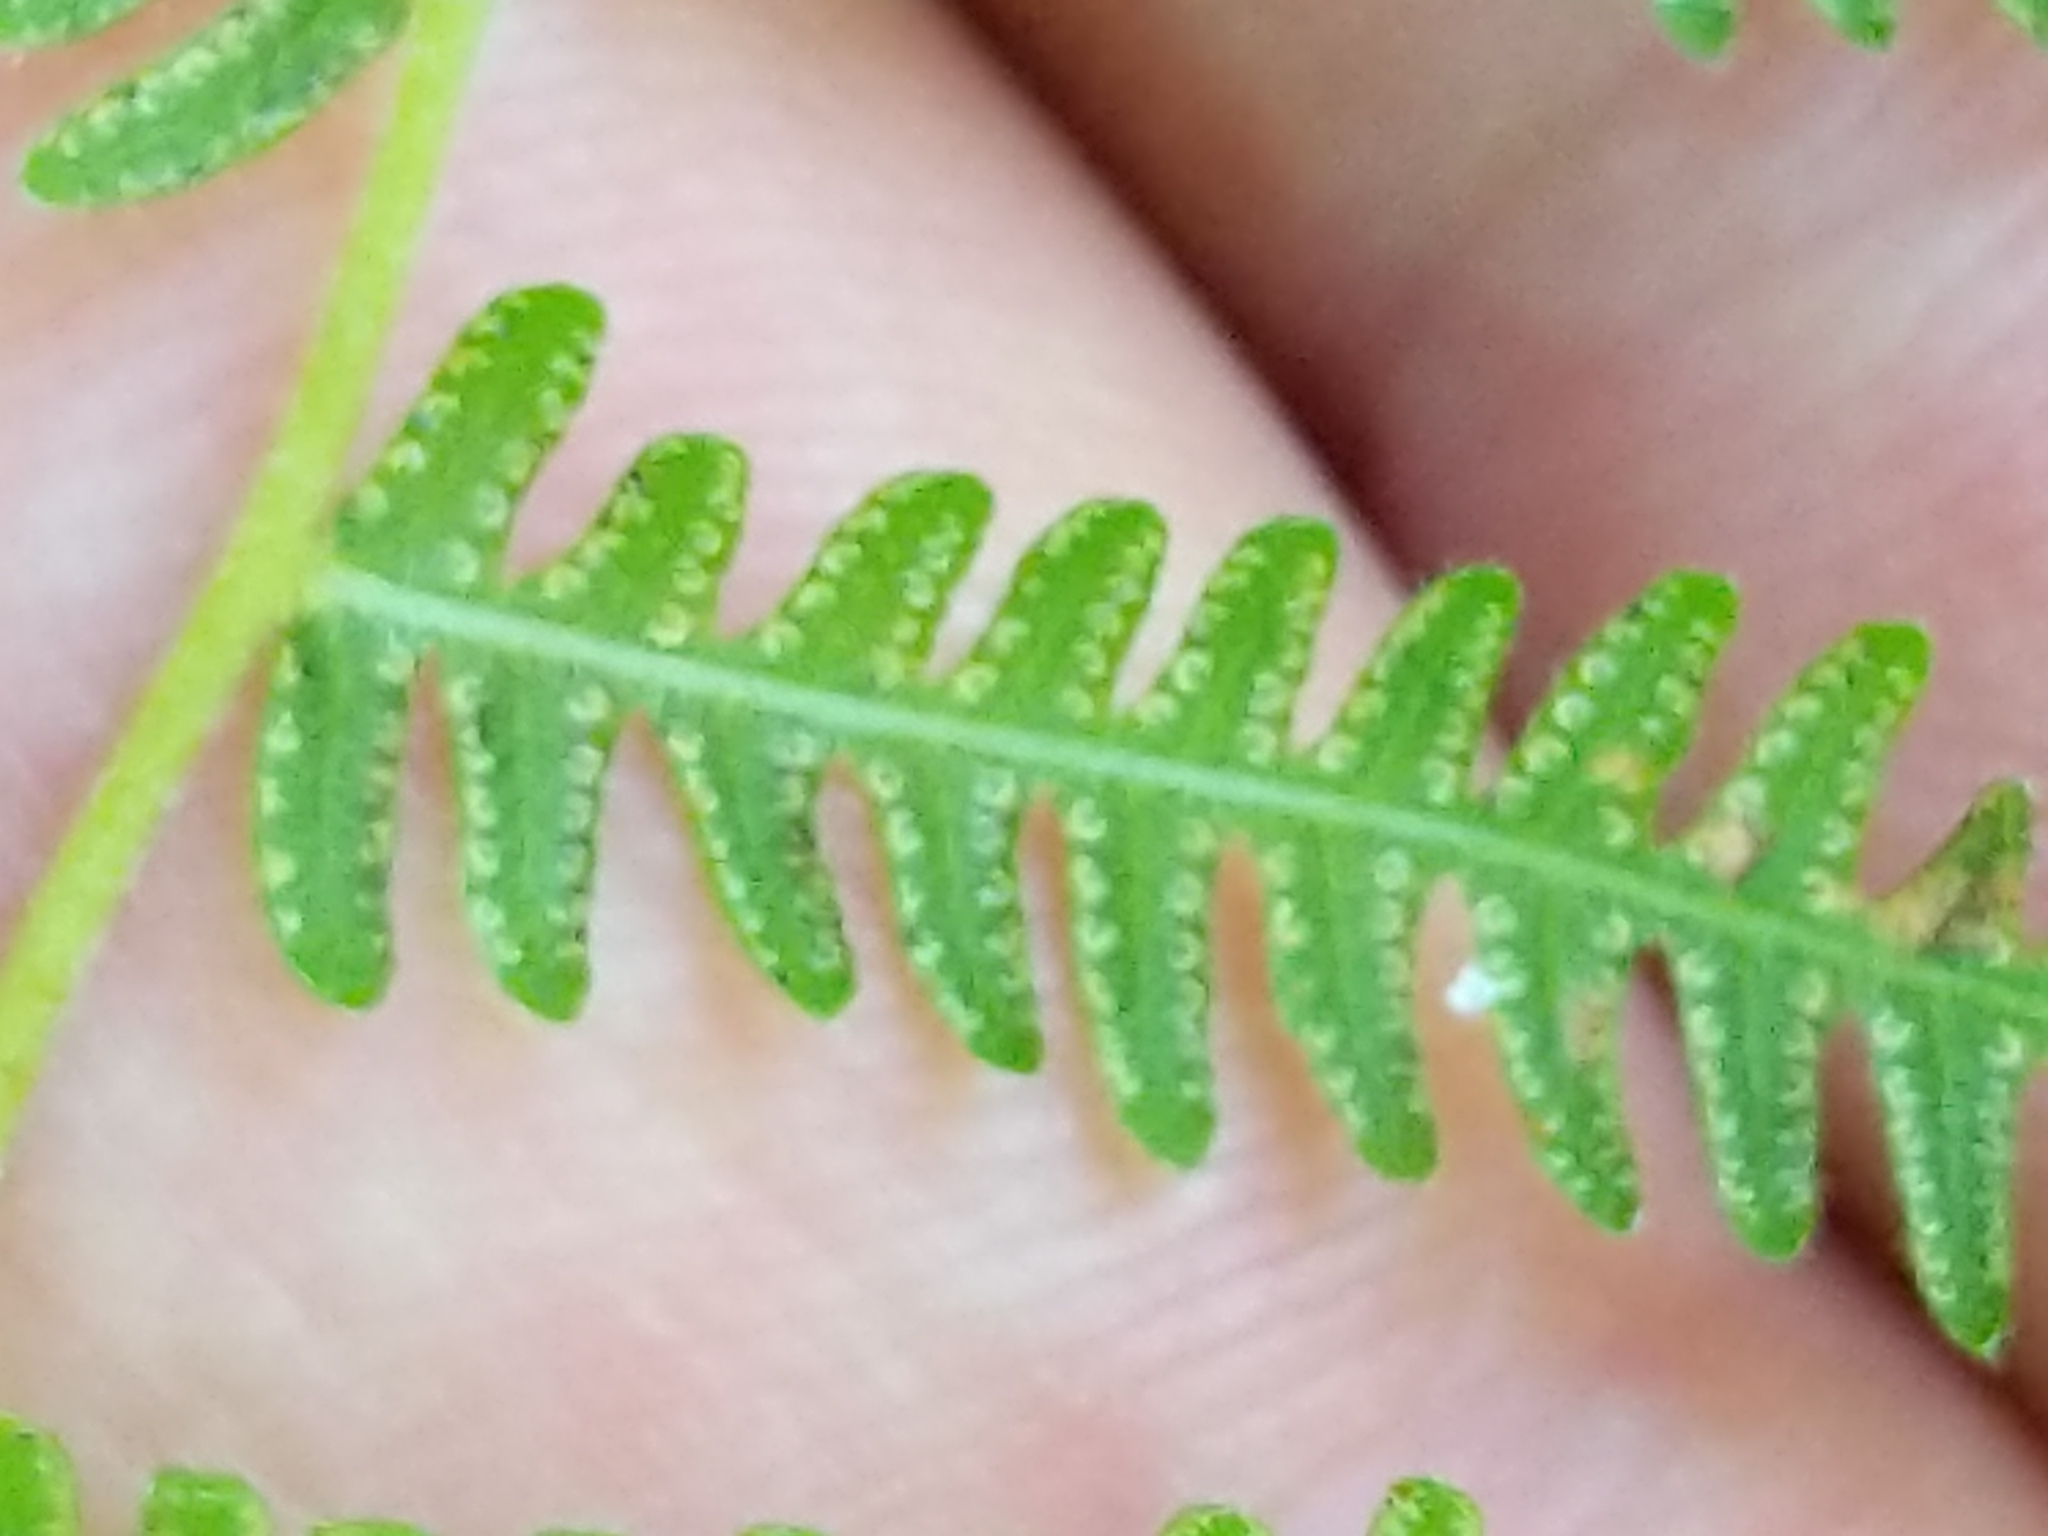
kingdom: Plantae
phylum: Tracheophyta
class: Polypodiopsida
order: Polypodiales
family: Thelypteridaceae
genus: Amauropelta
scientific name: Amauropelta noveboracensis
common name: New york fern
